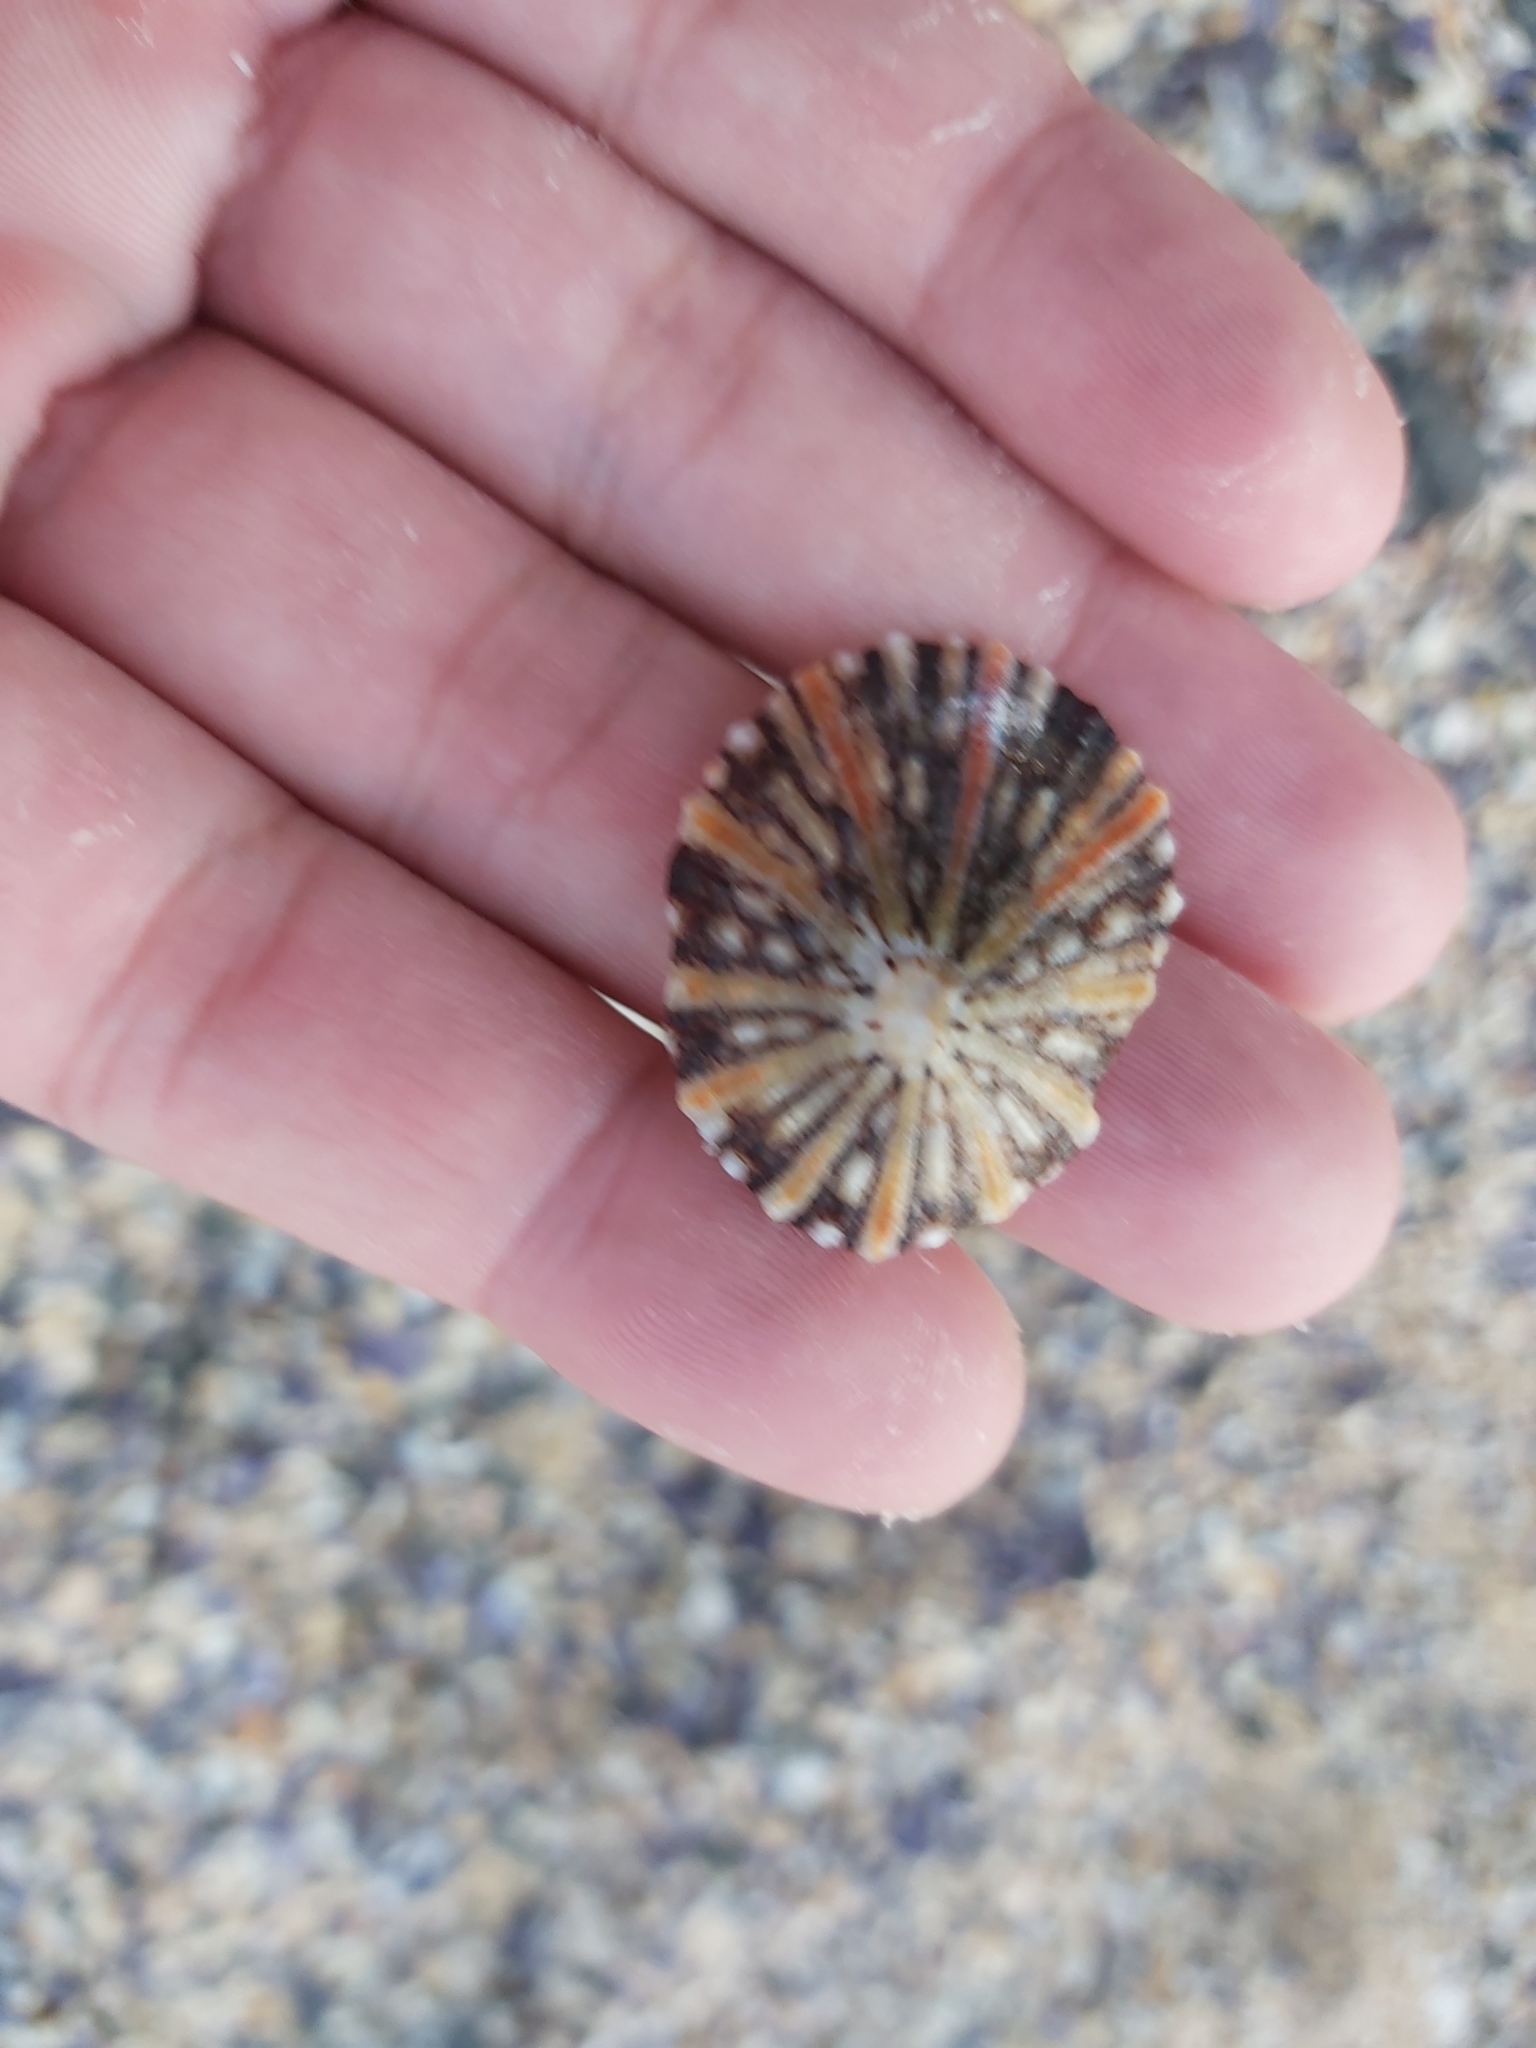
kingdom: Animalia
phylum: Mollusca
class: Gastropoda
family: Nacellidae
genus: Cellana
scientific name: Cellana tramoserica
